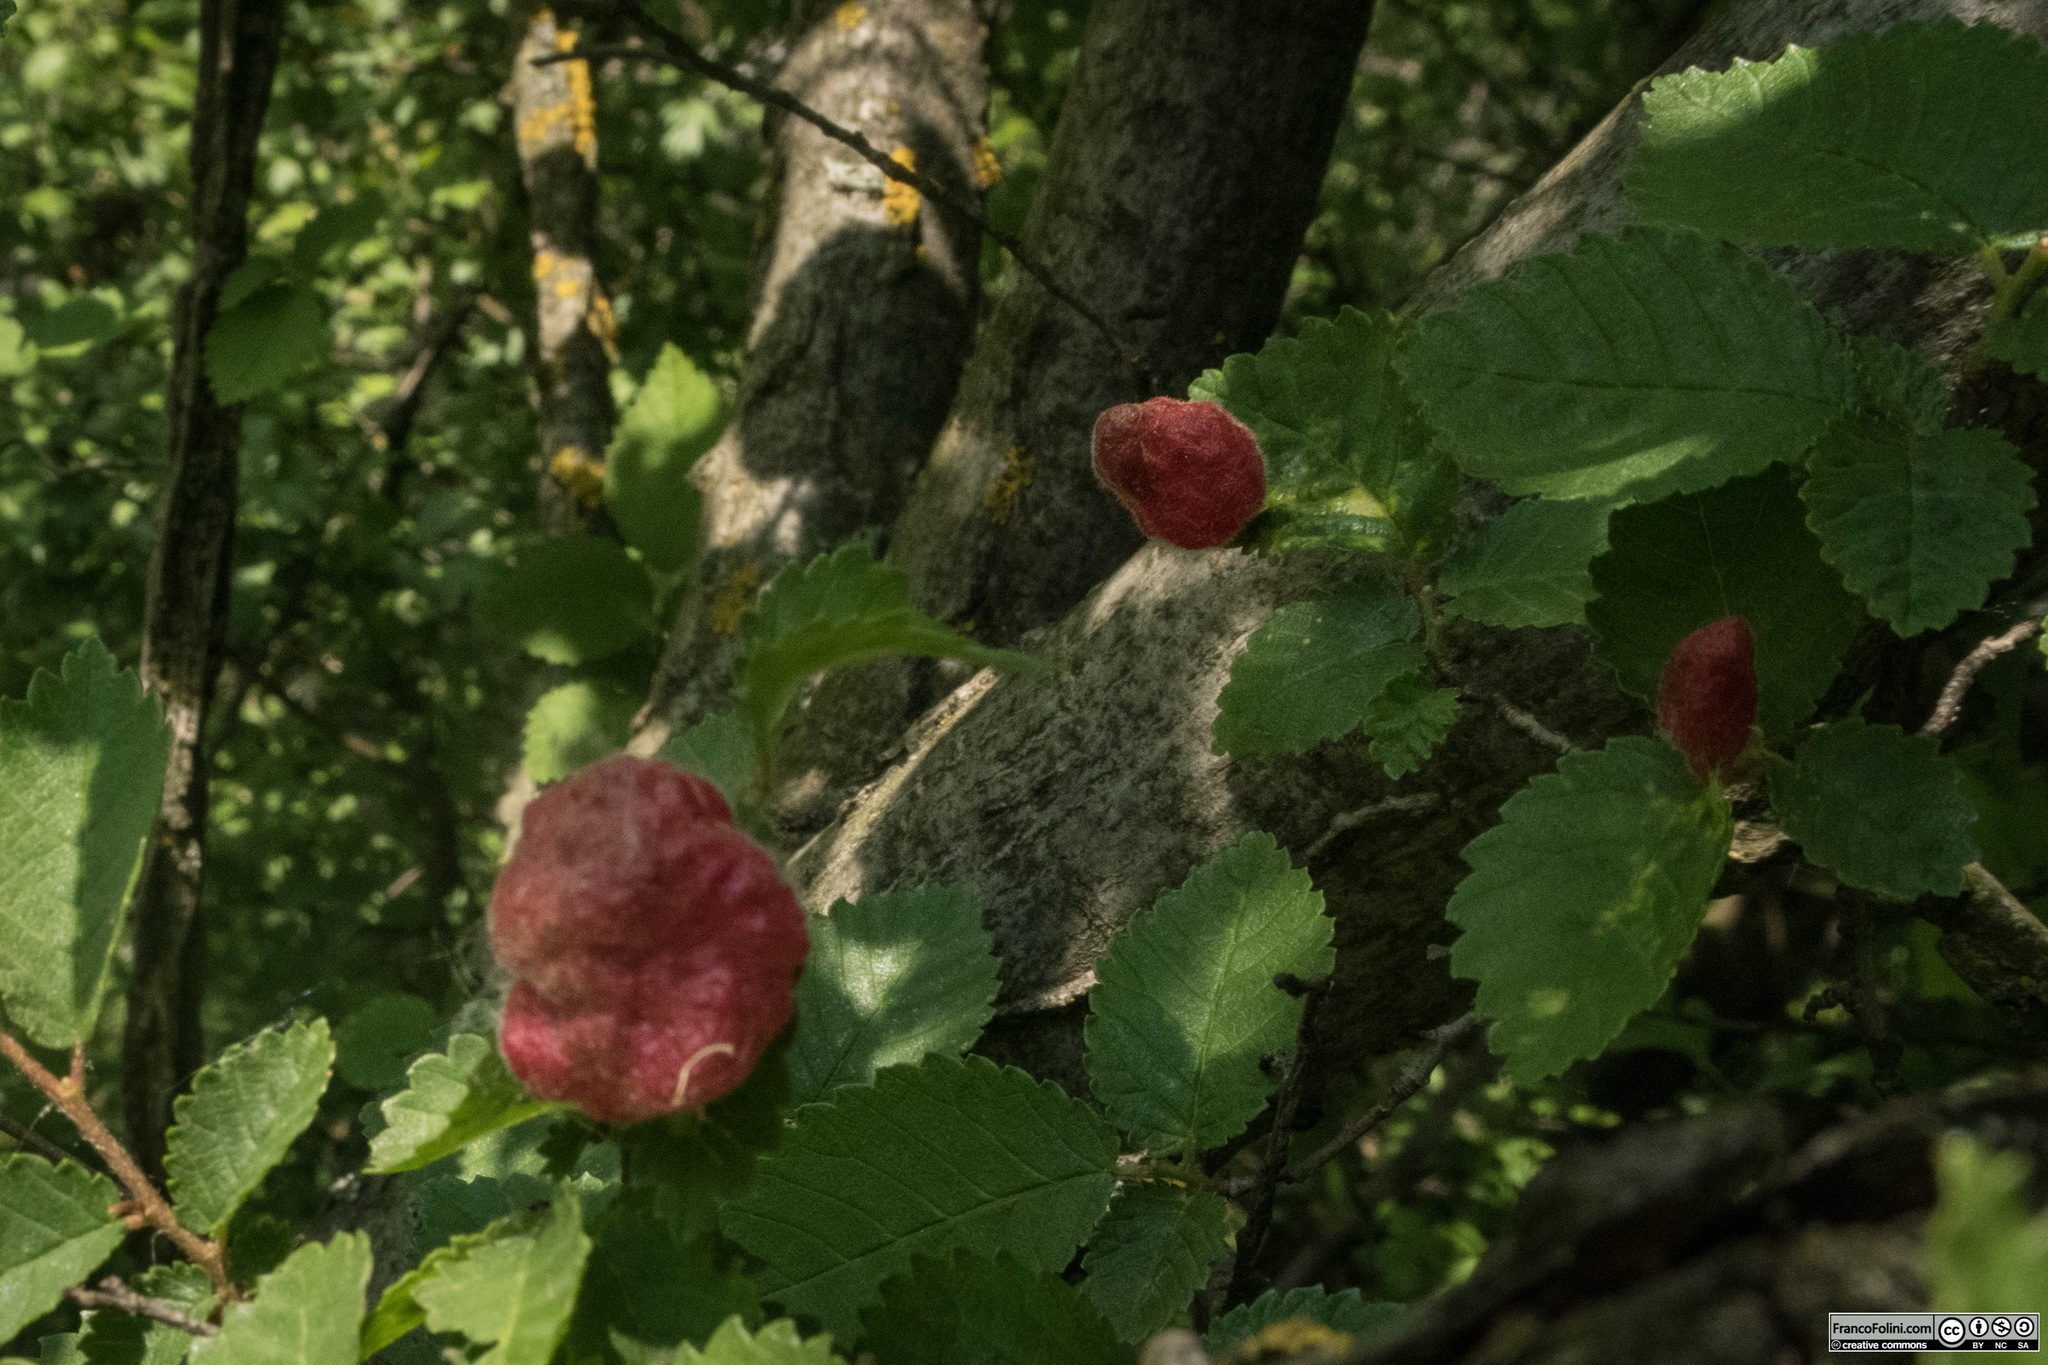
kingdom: Animalia
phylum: Arthropoda
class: Insecta
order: Hemiptera
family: Aphididae
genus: Eriosoma
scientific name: Eriosoma lanuginosum
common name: Aphid
